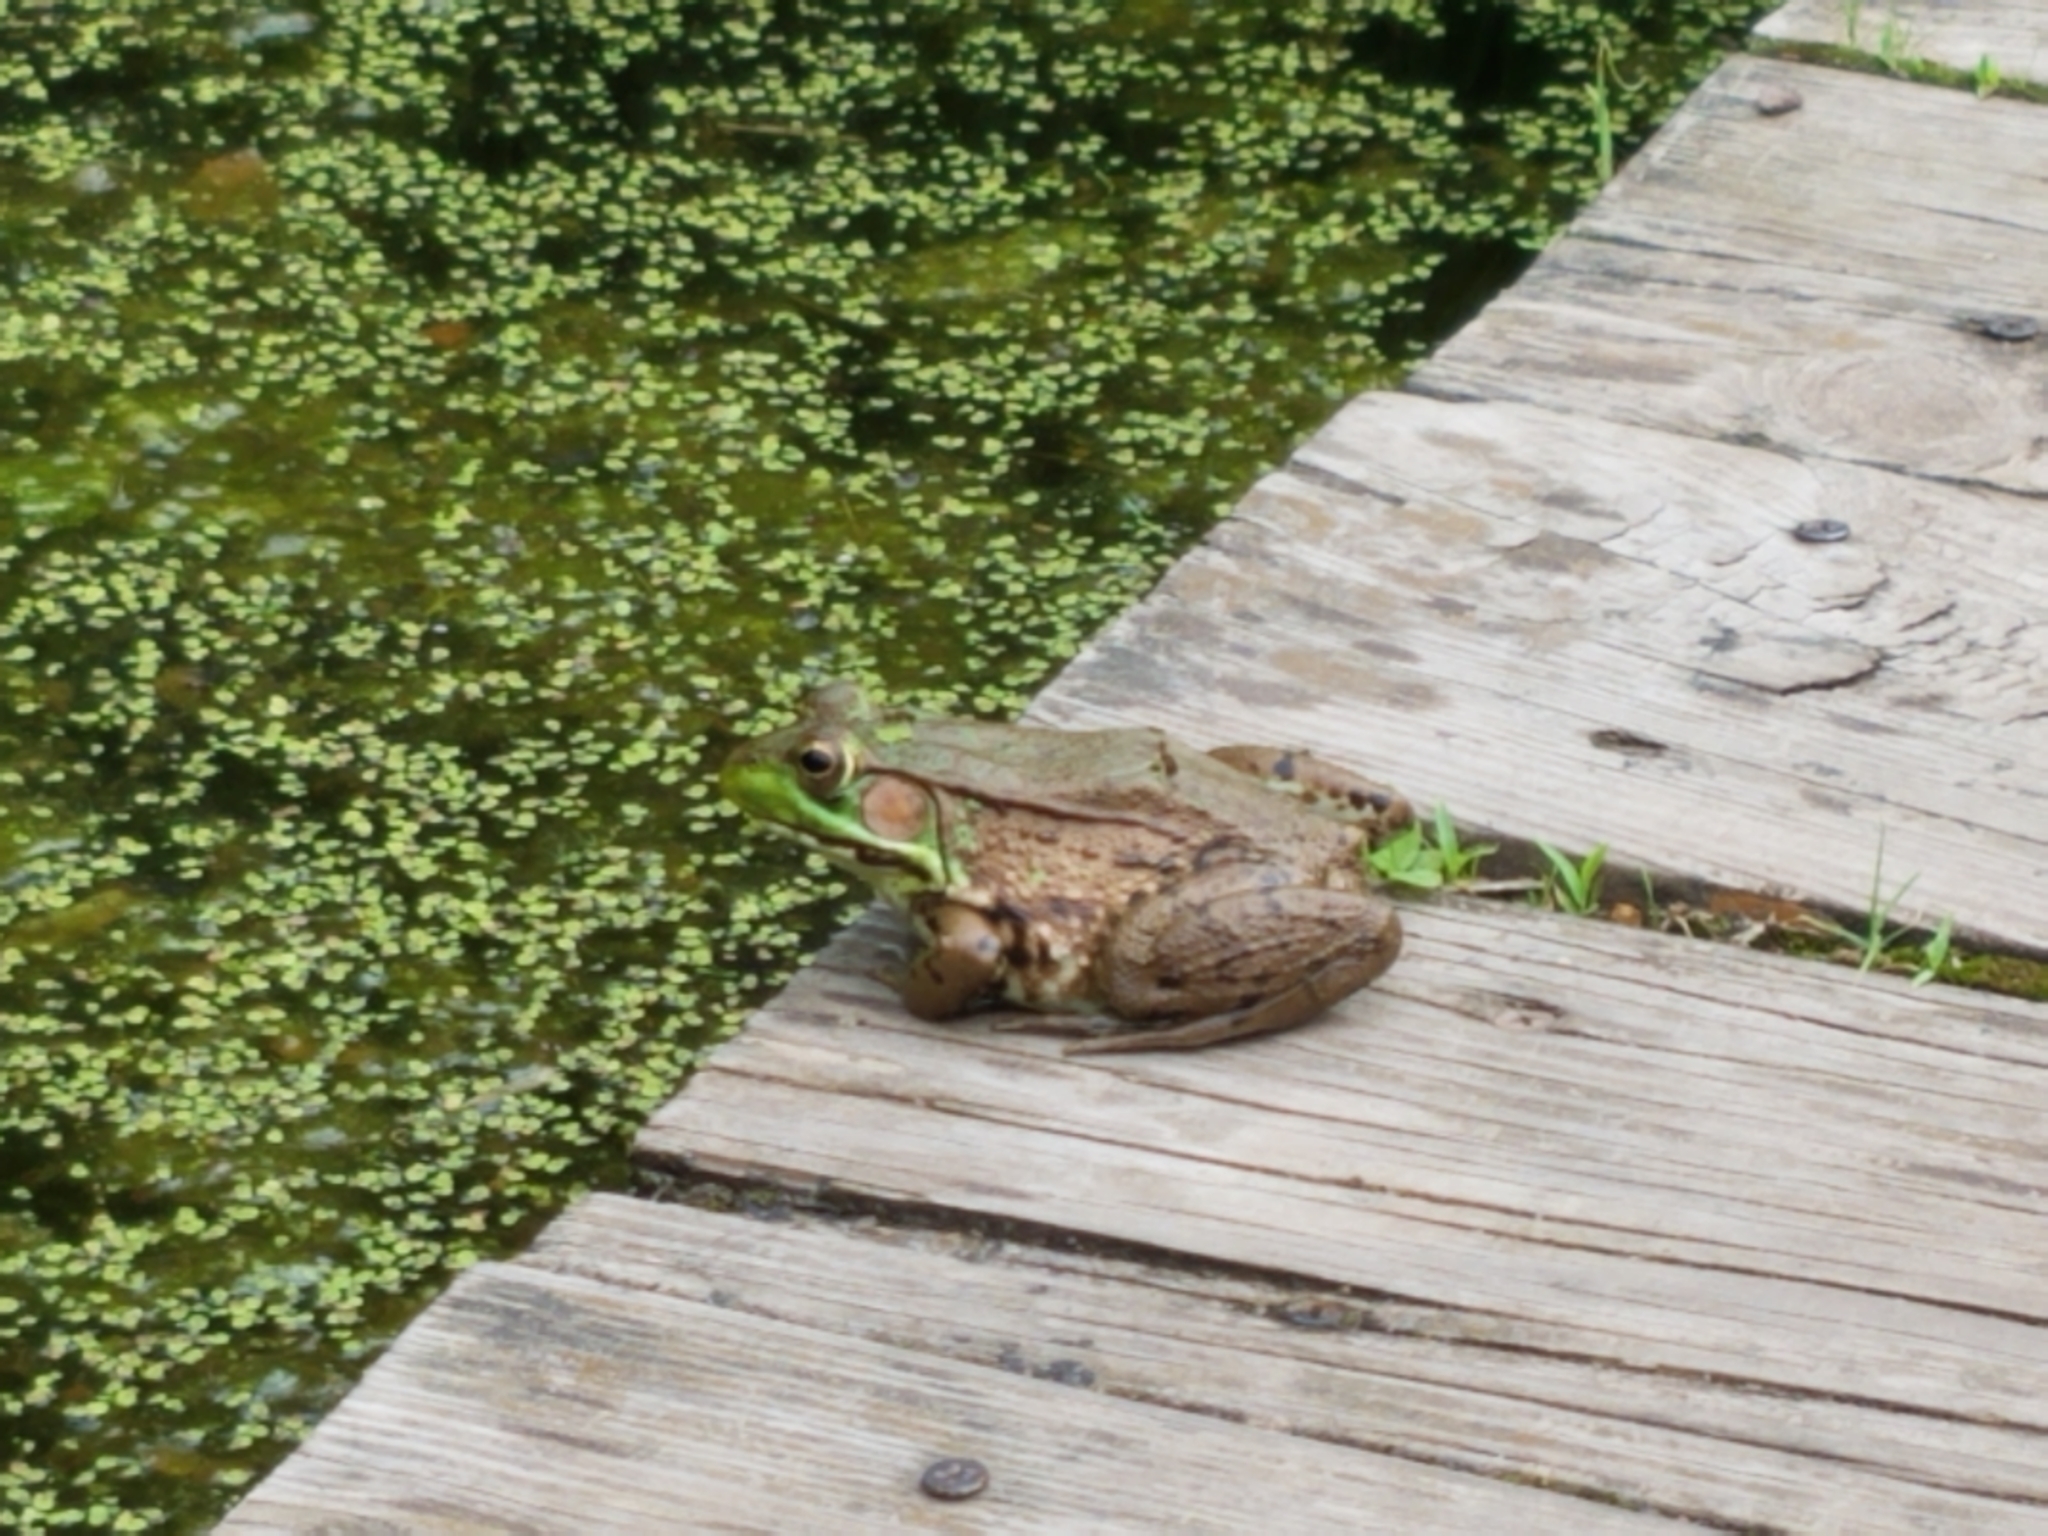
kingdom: Animalia
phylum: Chordata
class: Amphibia
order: Anura
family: Ranidae
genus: Lithobates
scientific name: Lithobates clamitans
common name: Green frog
